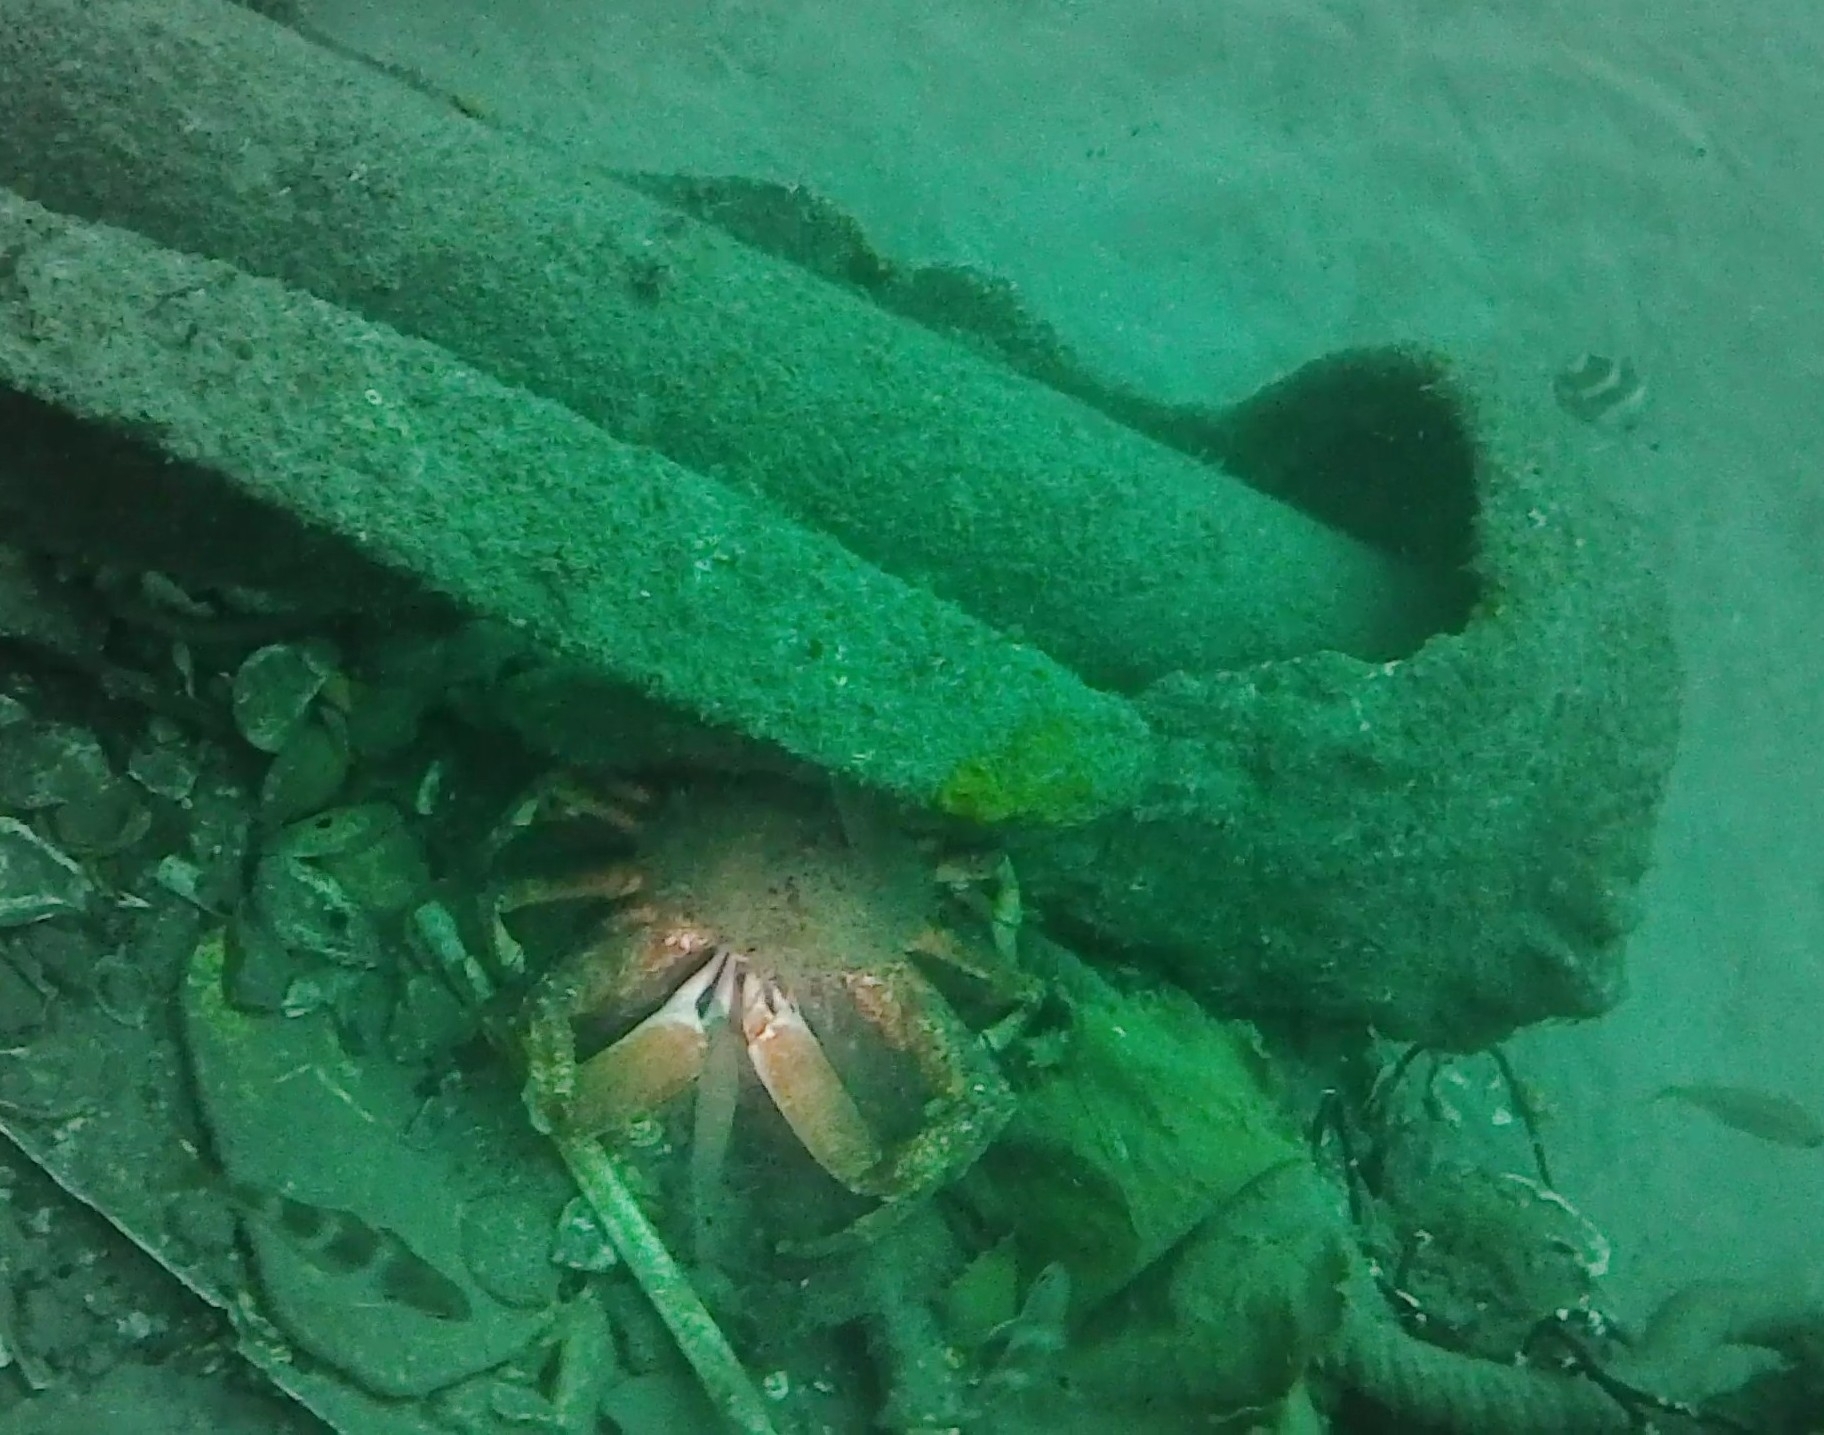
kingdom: Animalia
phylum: Arthropoda
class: Malacostraca
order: Decapoda
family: Majidae
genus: Maja
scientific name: Maja brachydactyla
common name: Common spider crab
